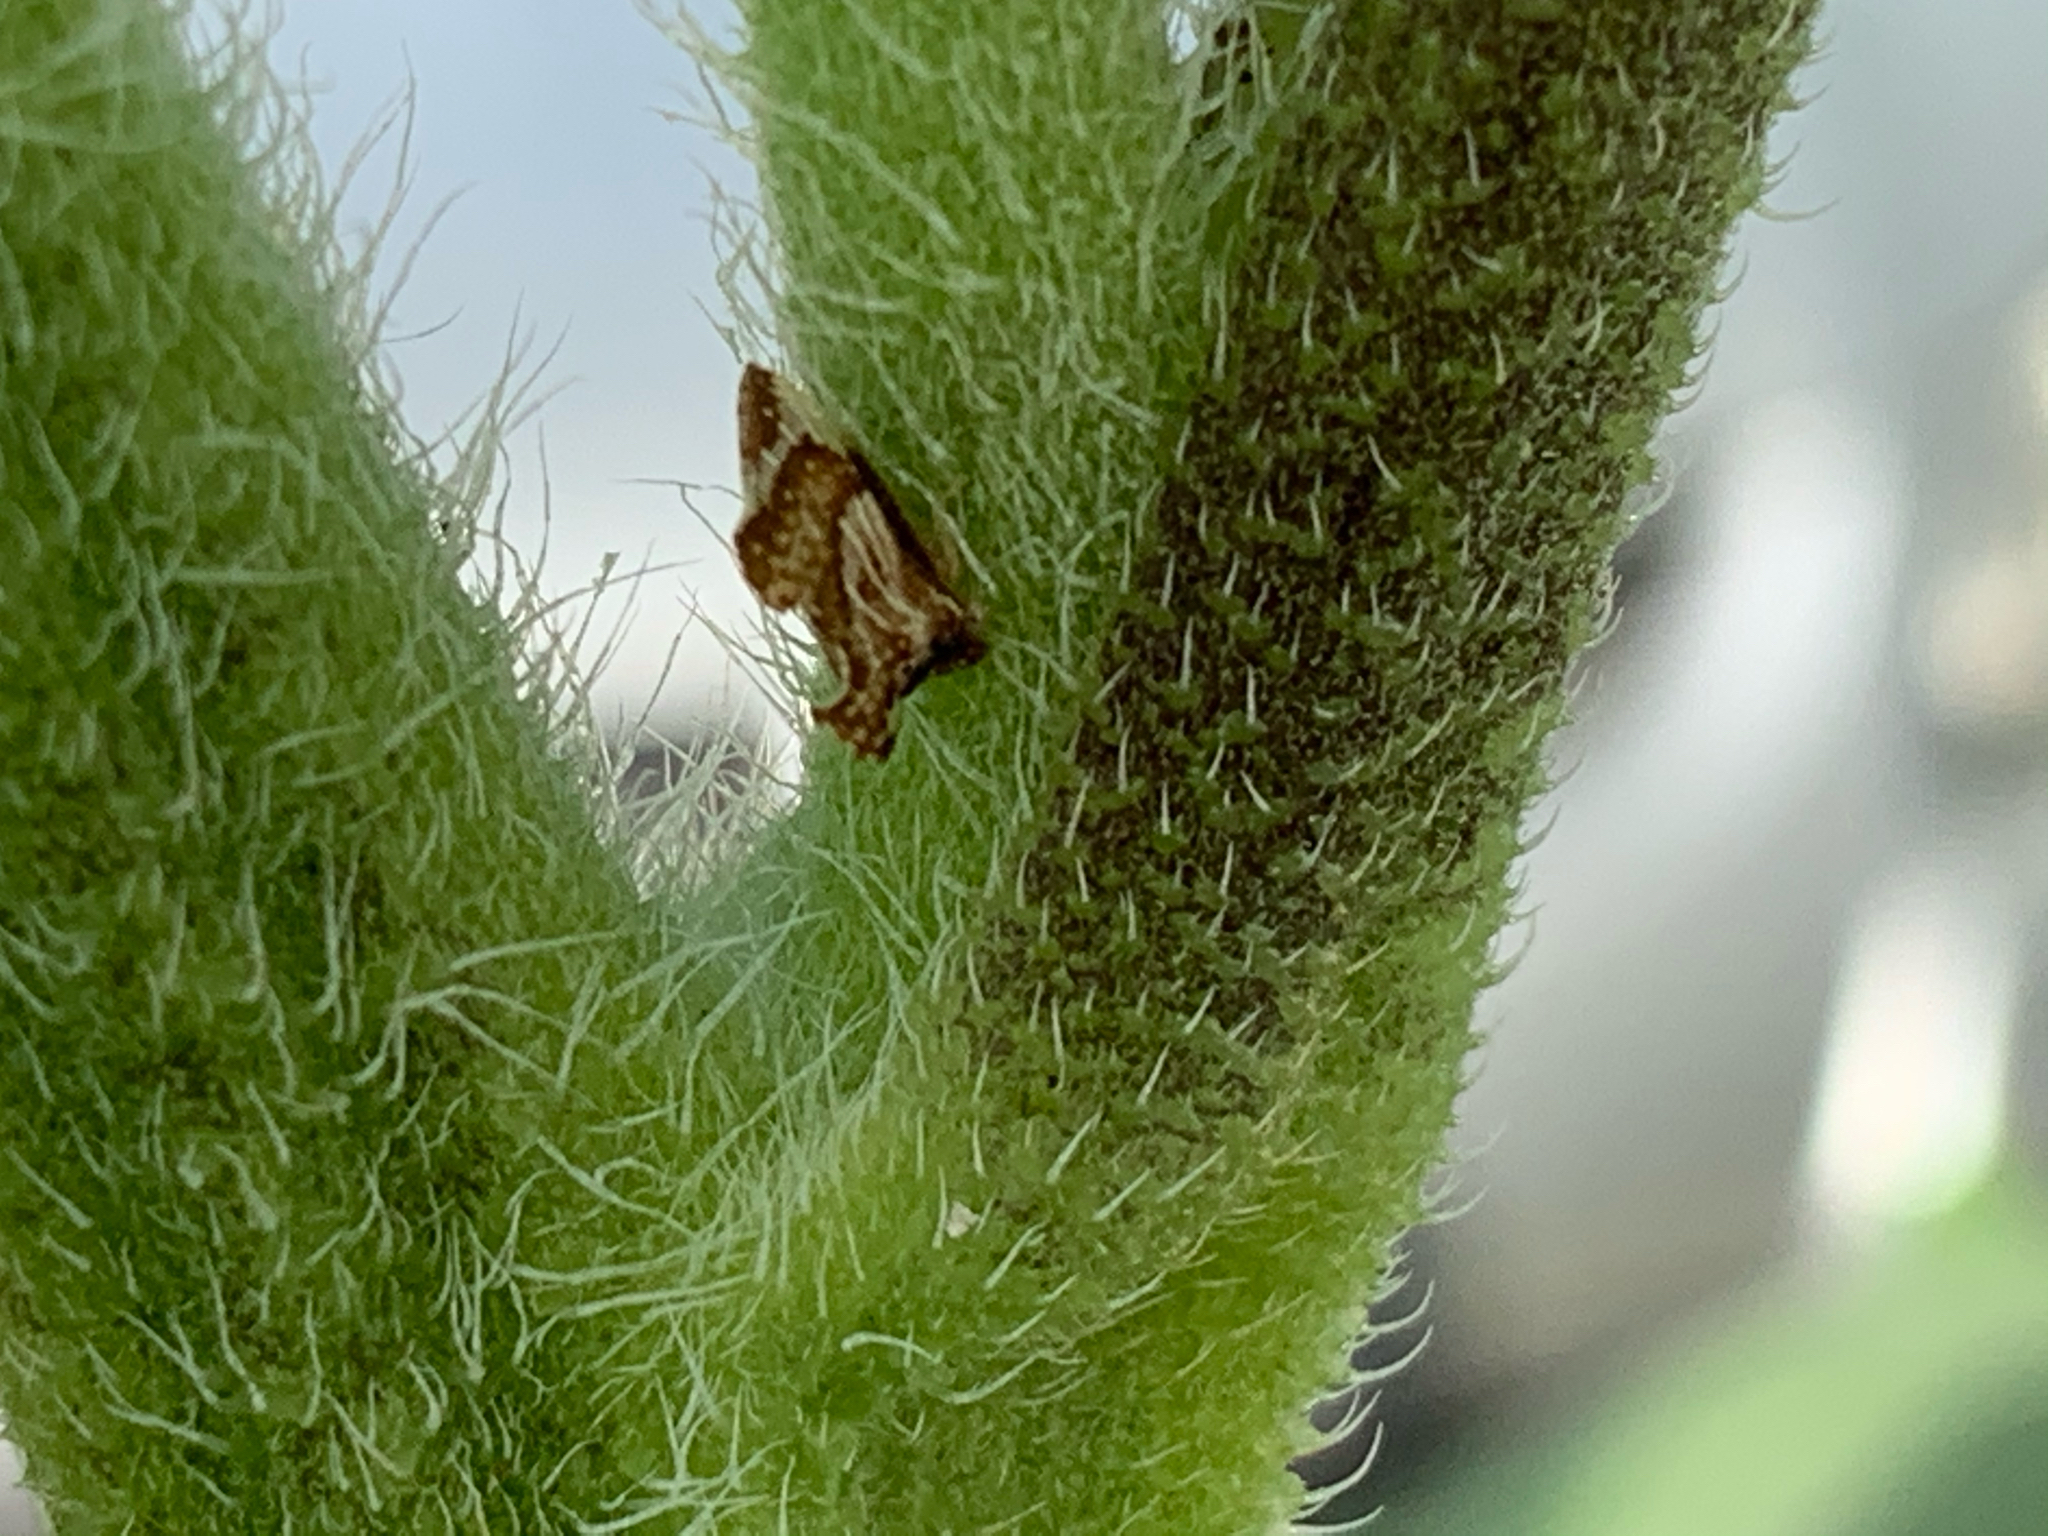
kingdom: Animalia
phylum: Arthropoda
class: Insecta
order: Hemiptera
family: Membracidae
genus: Entylia
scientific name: Entylia carinata
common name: Keeled treehopper
